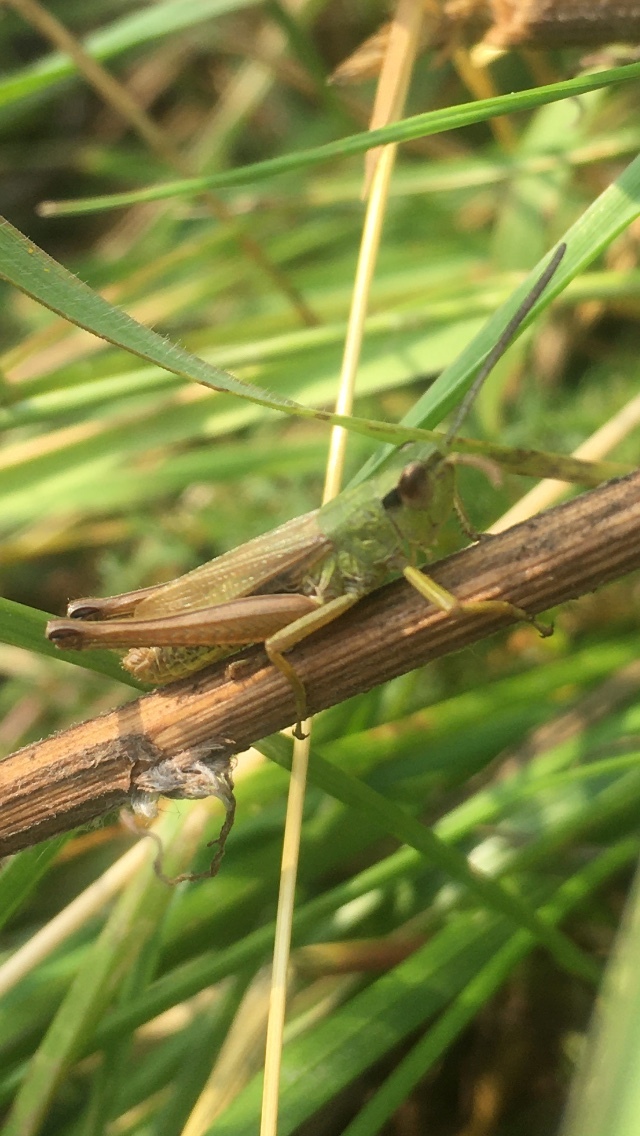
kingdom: Animalia
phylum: Arthropoda
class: Insecta
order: Orthoptera
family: Acrididae
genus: Pseudochorthippus
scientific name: Pseudochorthippus parallelus
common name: Meadow grasshopper
